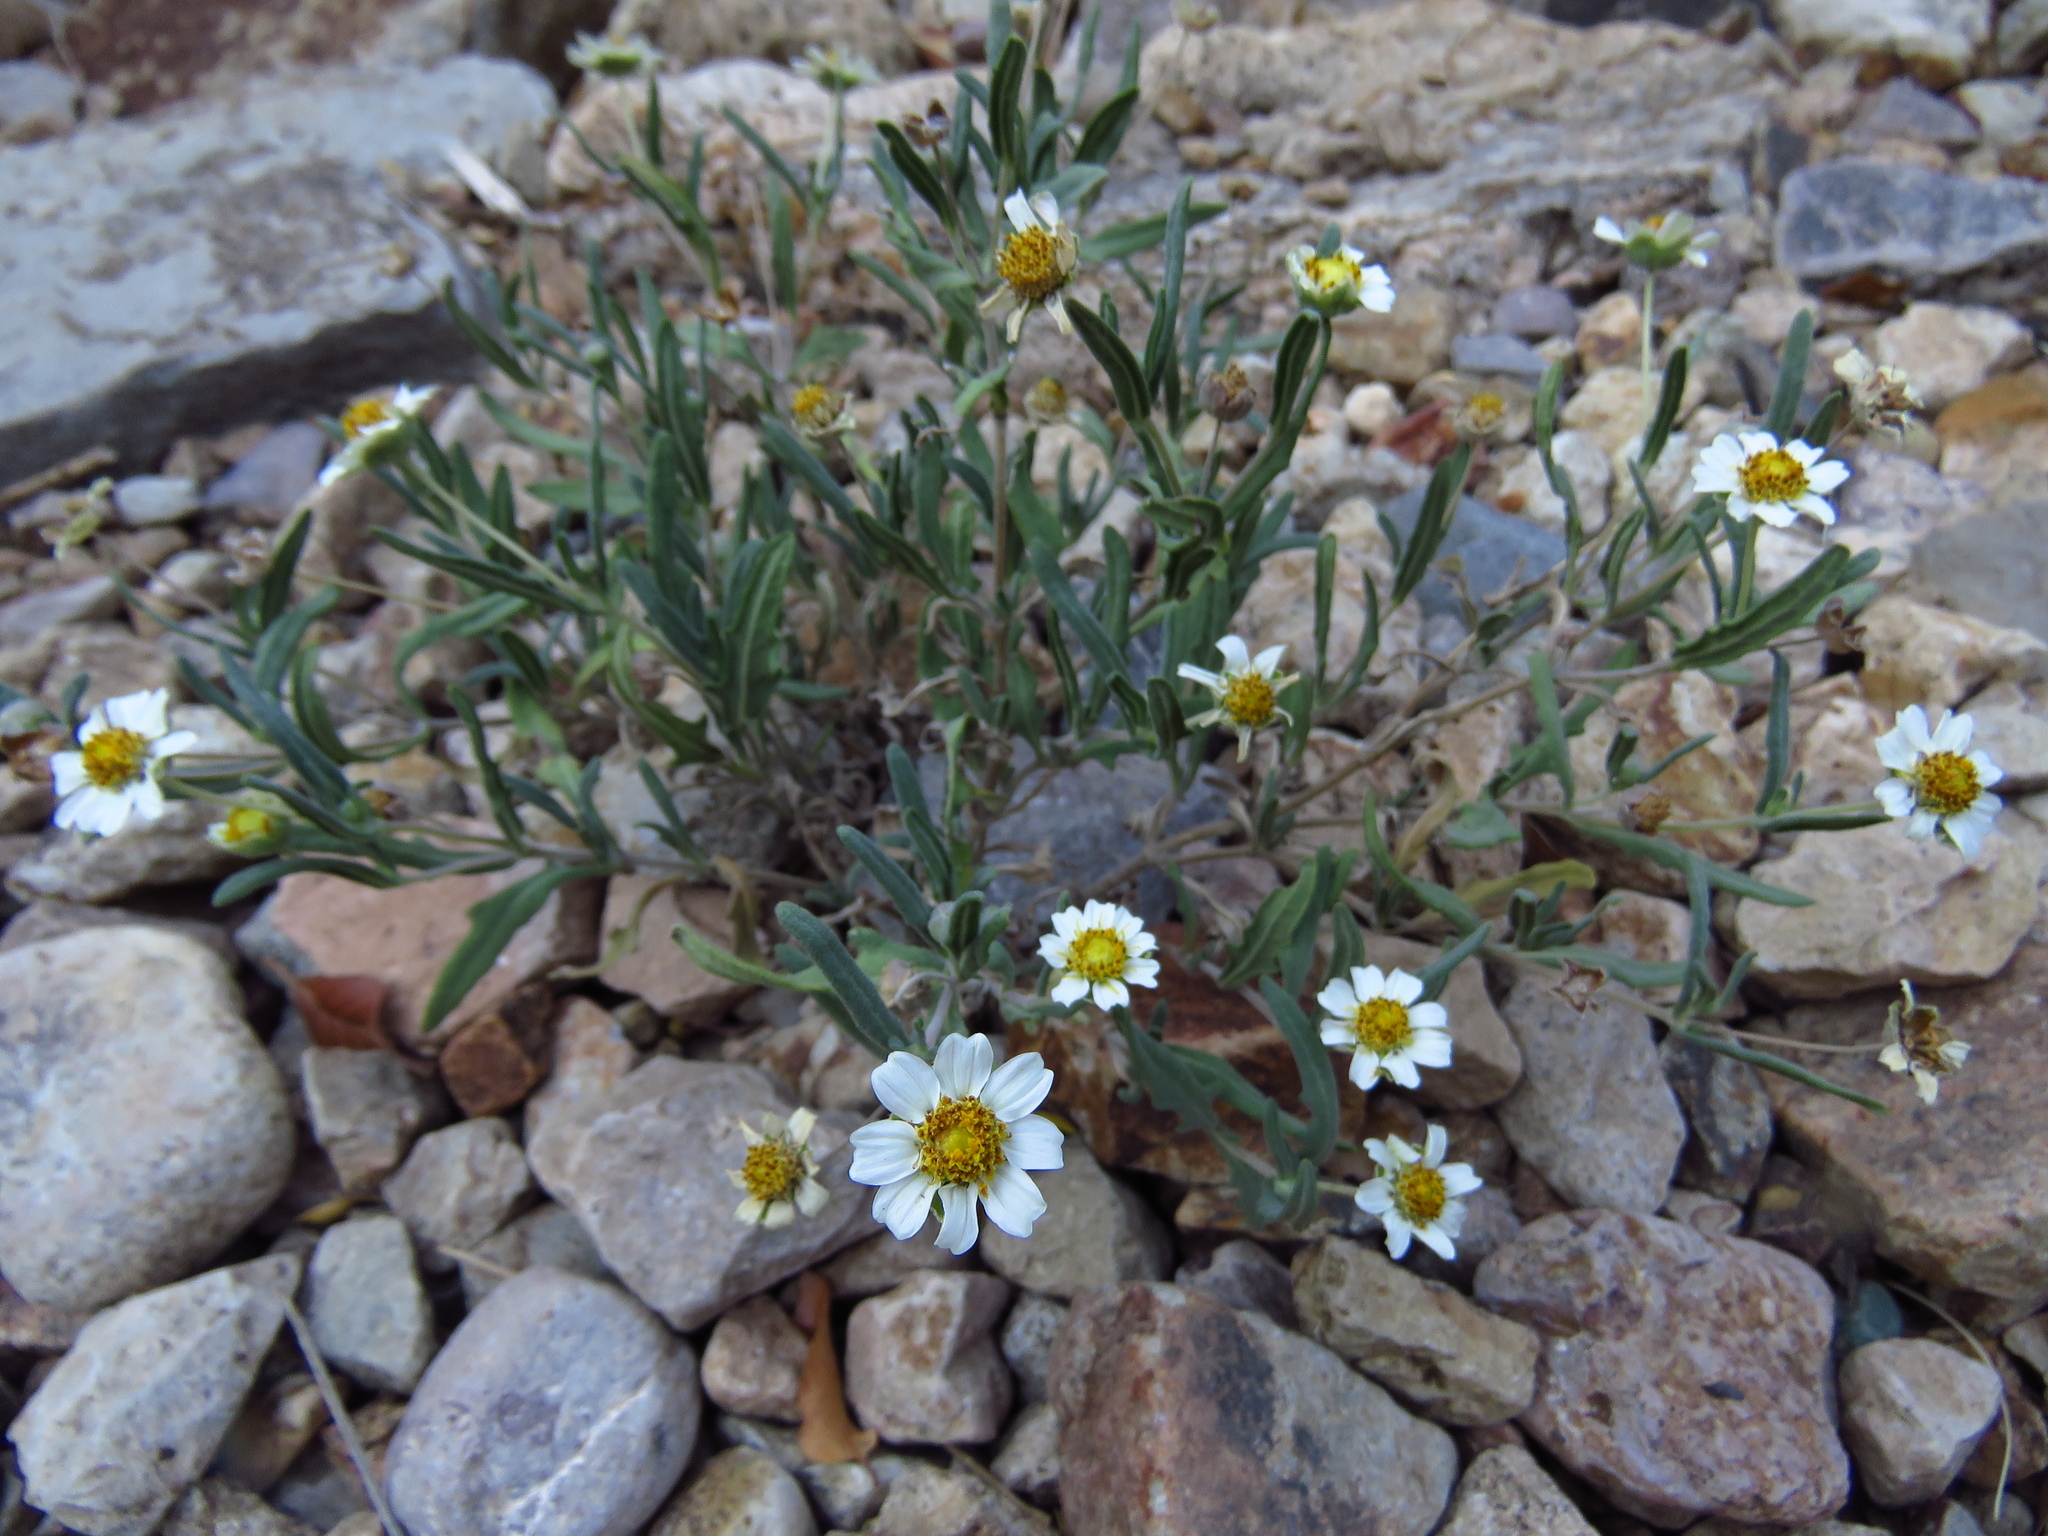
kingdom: Plantae
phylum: Tracheophyta
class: Magnoliopsida
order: Asterales
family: Asteraceae
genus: Melampodium
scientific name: Melampodium leucanthum
